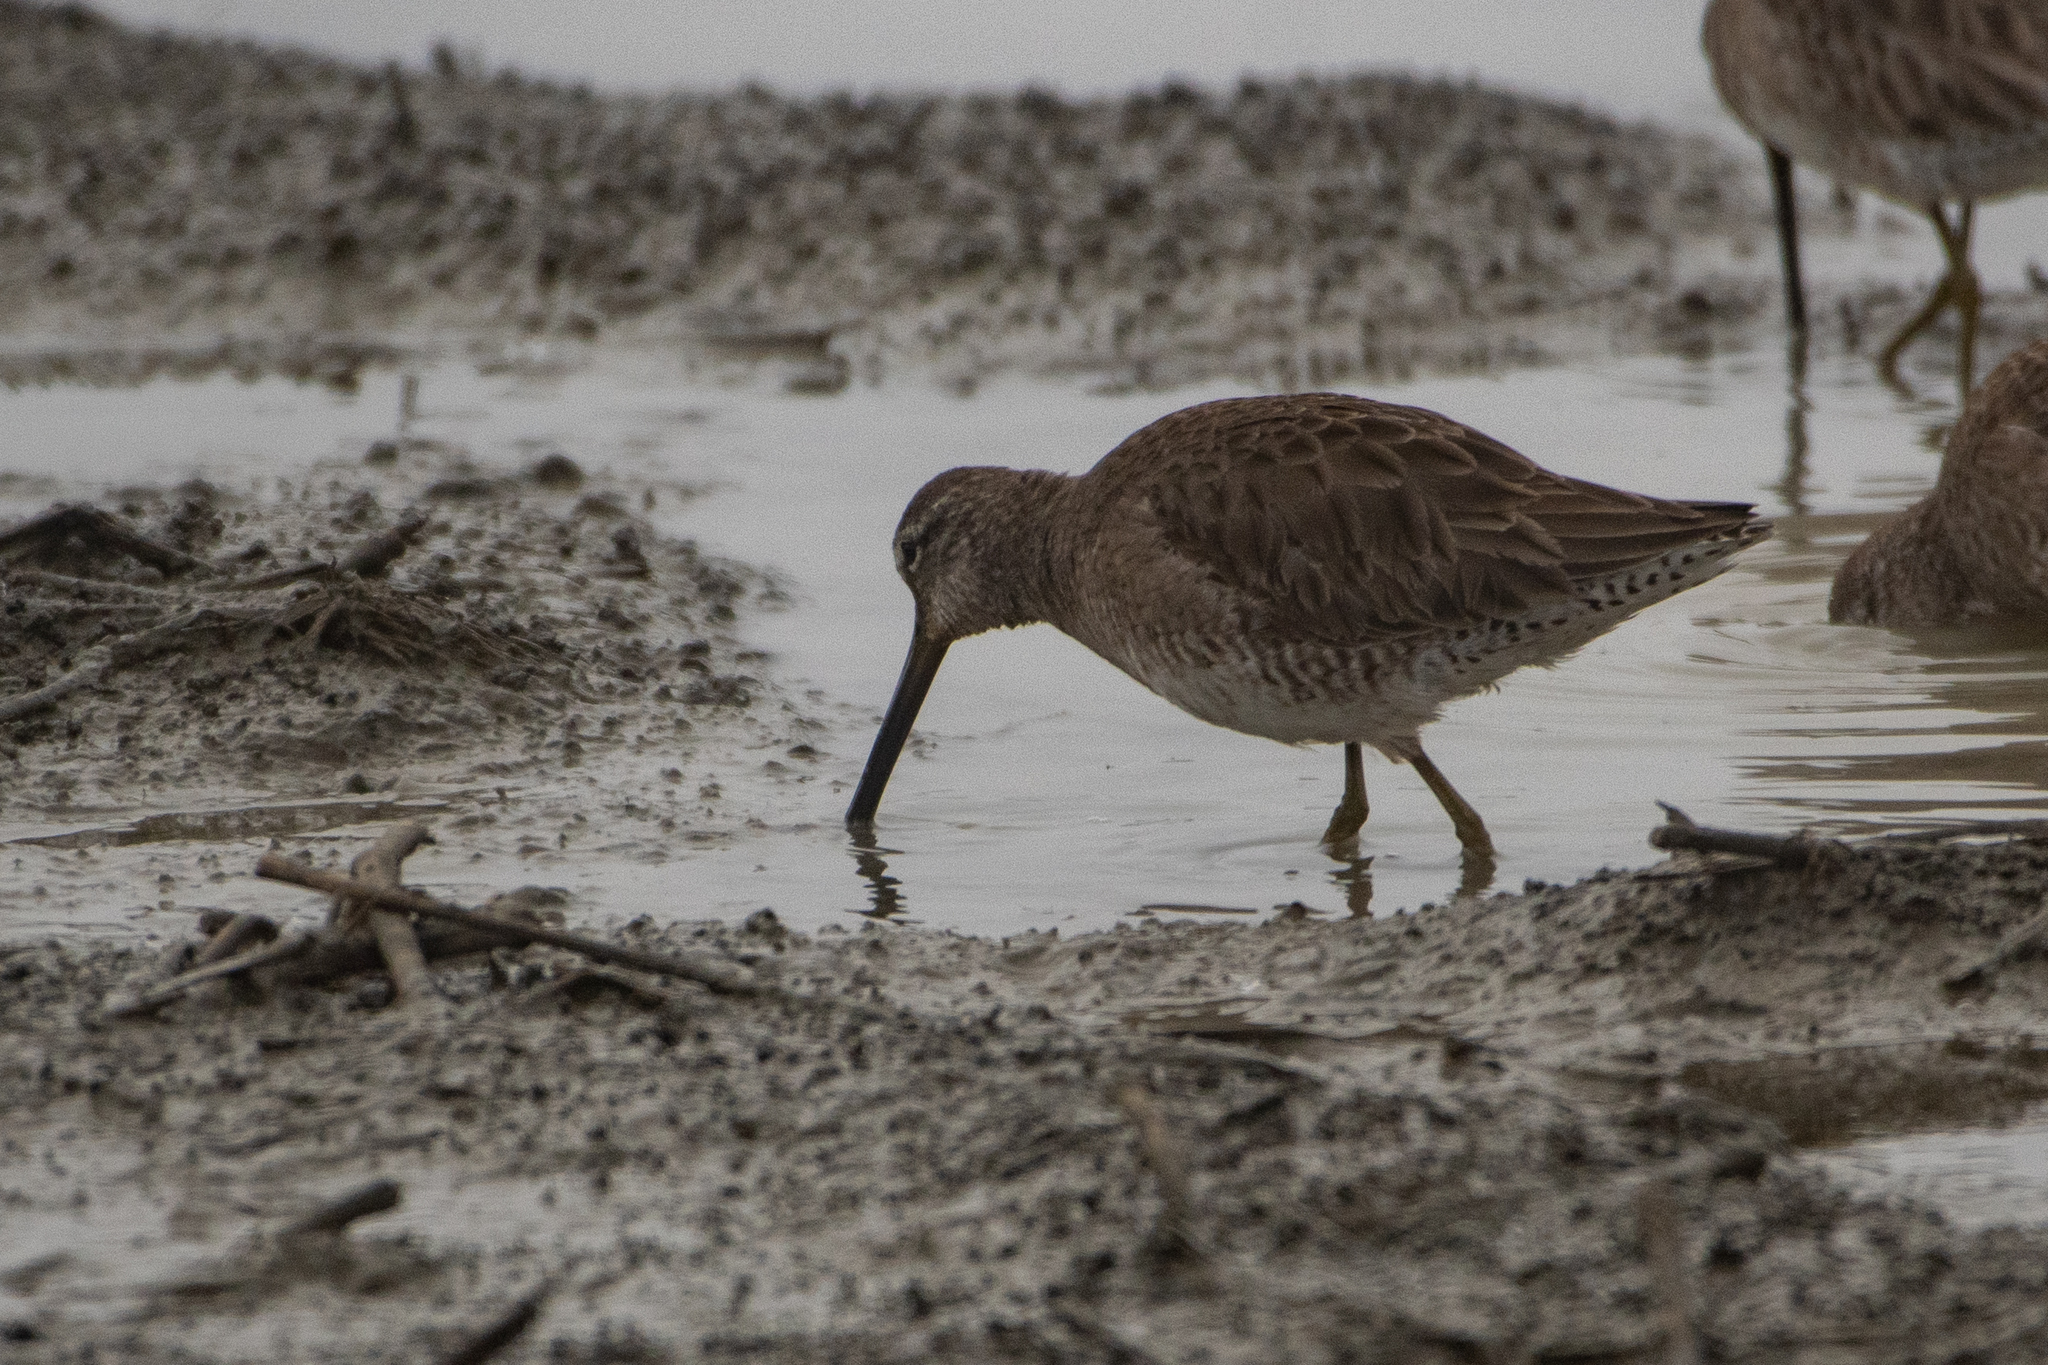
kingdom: Animalia
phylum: Chordata
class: Aves
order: Charadriiformes
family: Scolopacidae
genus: Limnodromus
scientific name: Limnodromus scolopaceus
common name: Long-billed dowitcher
